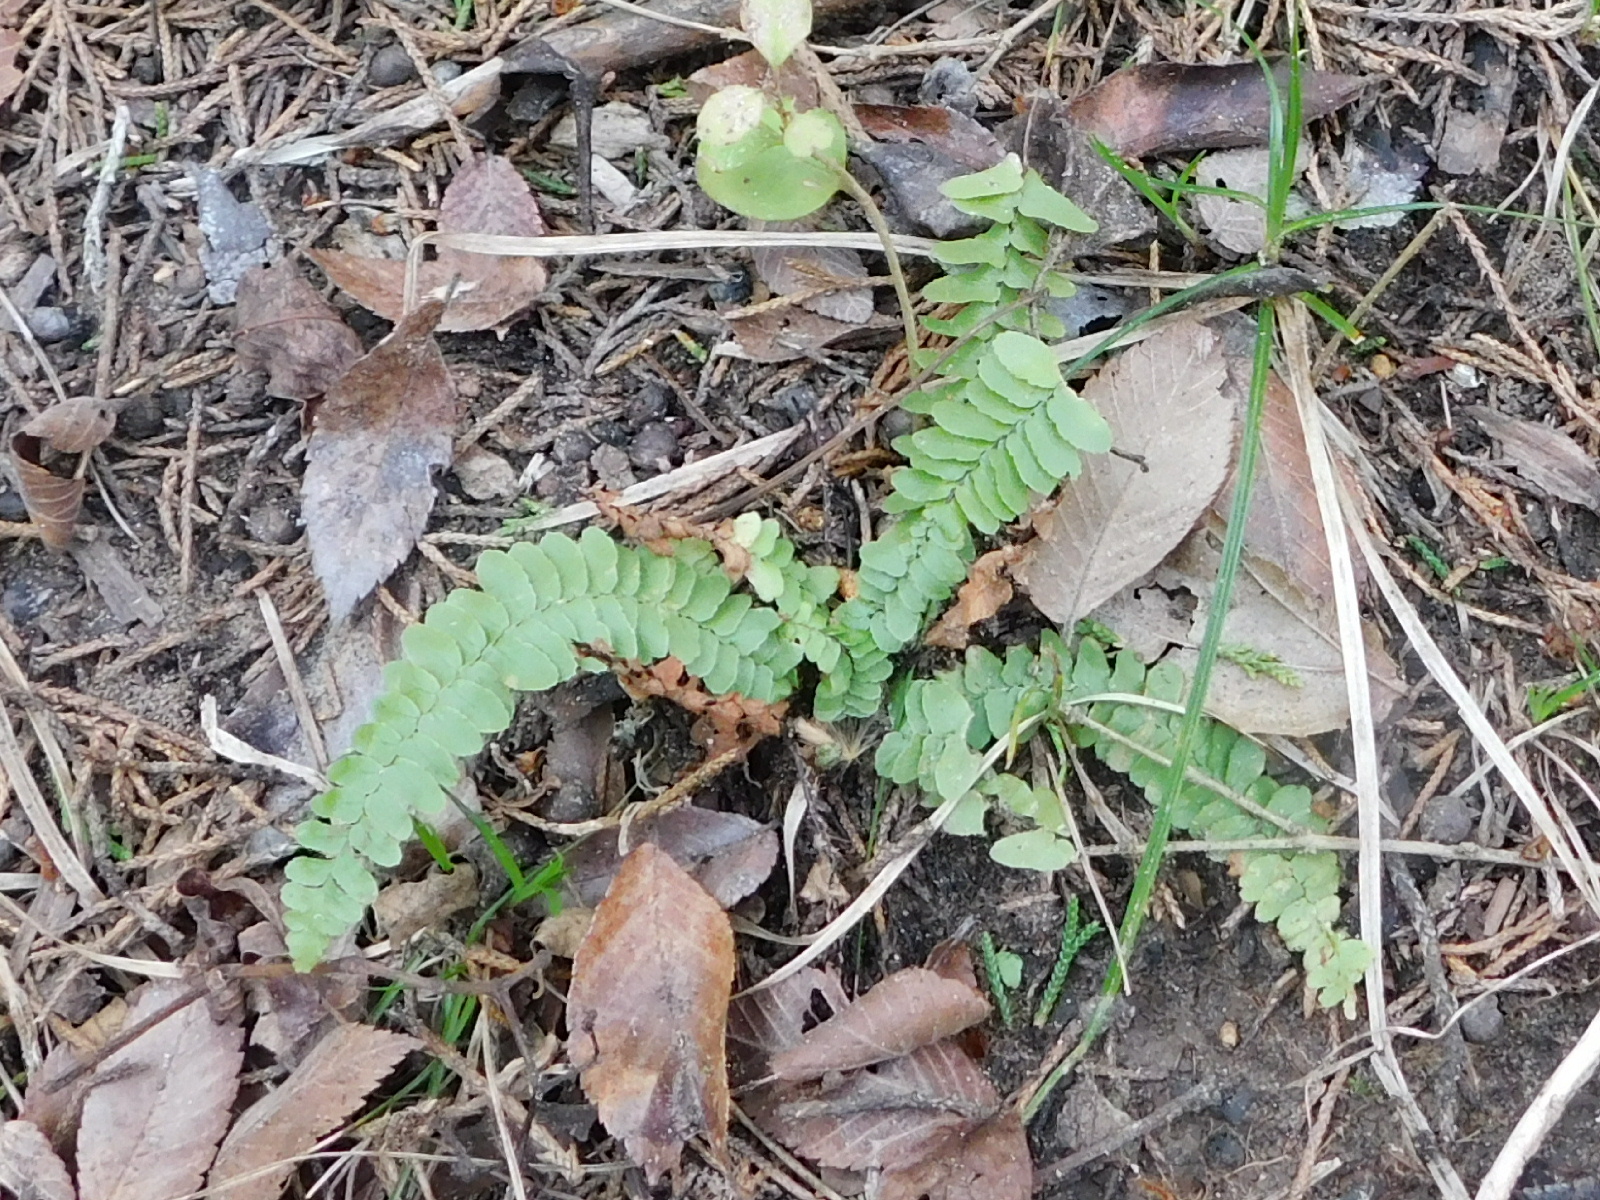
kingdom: Plantae
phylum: Tracheophyta
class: Polypodiopsida
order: Polypodiales
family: Aspleniaceae
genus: Asplenium
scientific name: Asplenium platyneuron
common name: Ebony spleenwort
